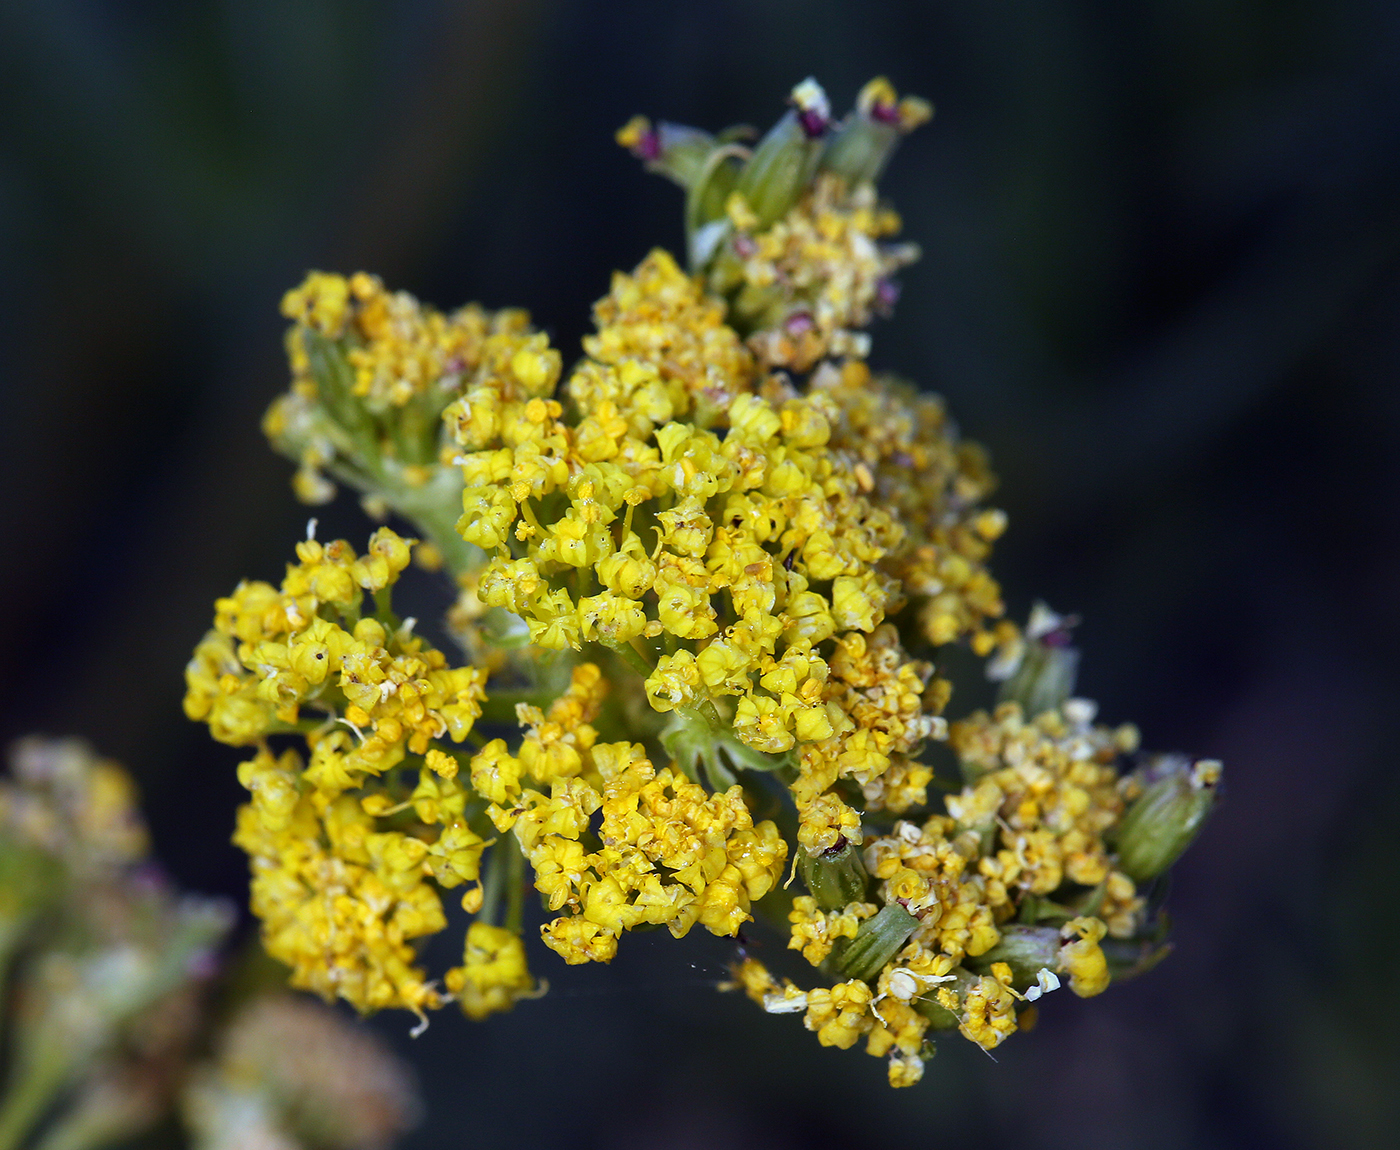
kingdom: Plantae
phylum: Tracheophyta
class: Magnoliopsida
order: Apiales
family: Apiaceae
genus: Lomatium
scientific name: Lomatium austiniae
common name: Plumas lomatium
